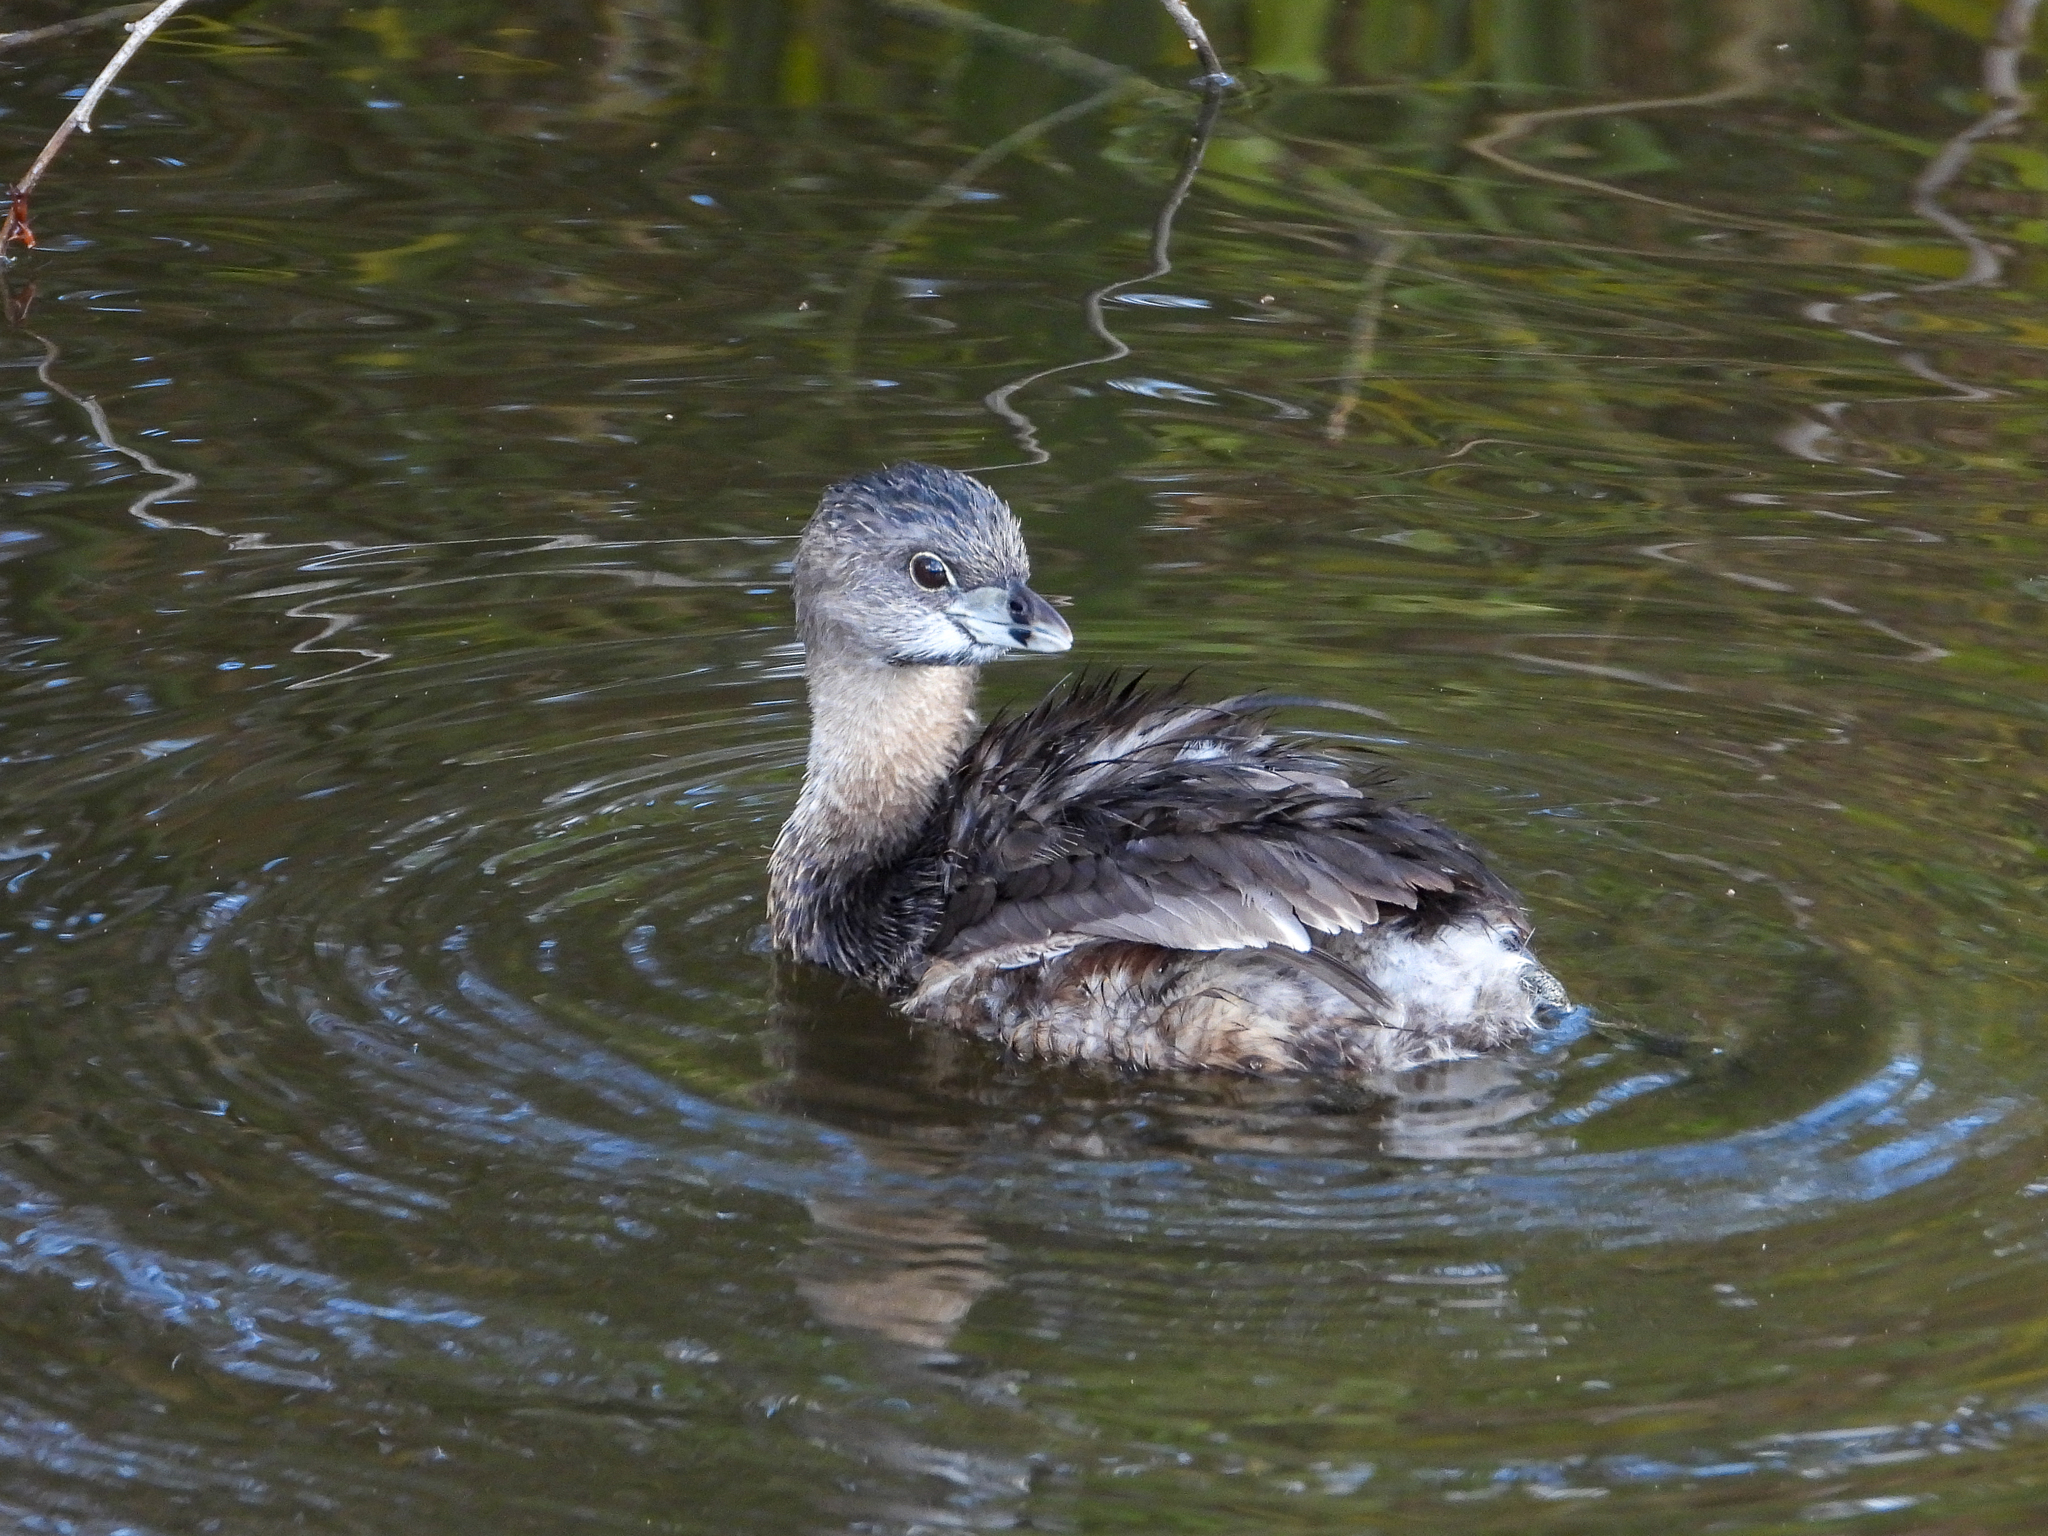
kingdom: Animalia
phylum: Chordata
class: Aves
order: Podicipediformes
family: Podicipedidae
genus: Podilymbus
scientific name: Podilymbus podiceps
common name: Pied-billed grebe
